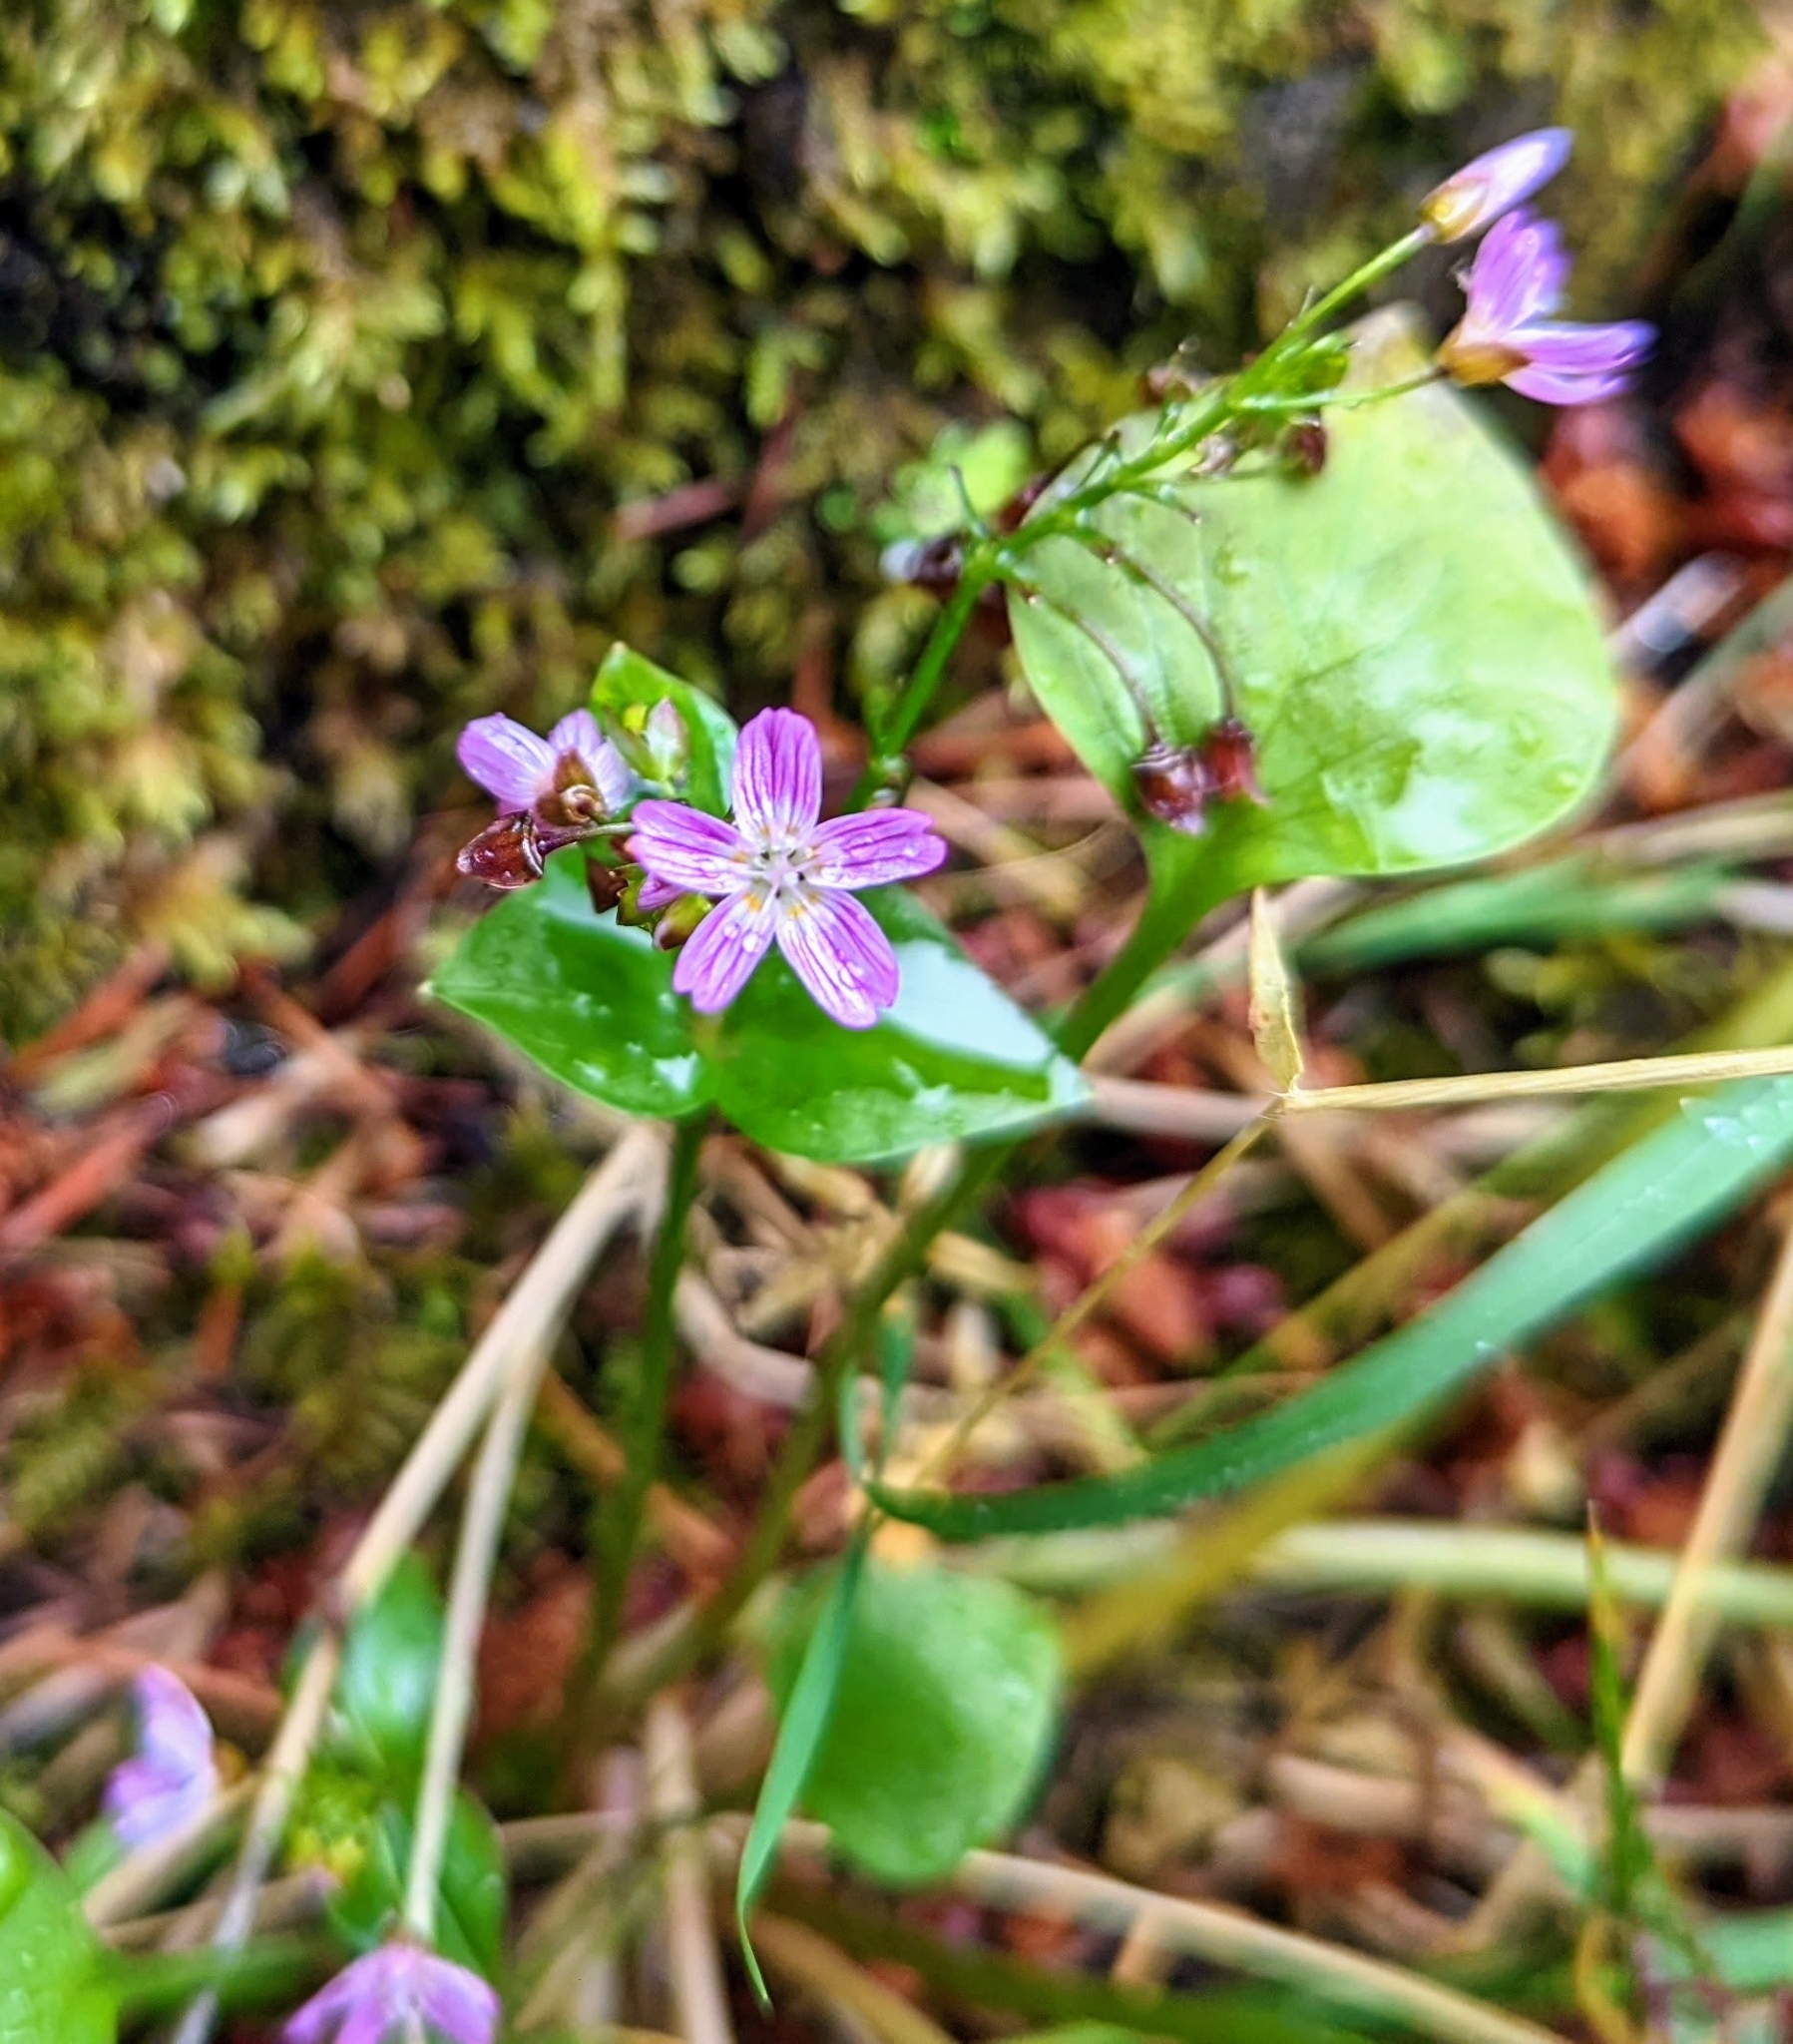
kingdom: Plantae
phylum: Tracheophyta
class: Magnoliopsida
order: Caryophyllales
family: Montiaceae
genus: Claytonia
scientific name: Claytonia sibirica
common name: Pink purslane
